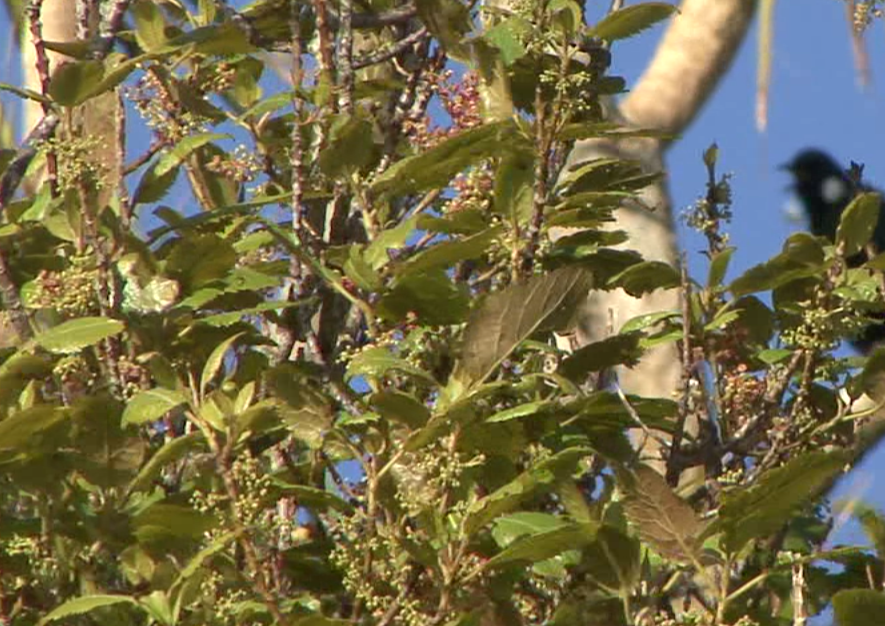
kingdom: Plantae
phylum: Tracheophyta
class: Magnoliopsida
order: Oxalidales
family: Elaeocarpaceae
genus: Aristotelia
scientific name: Aristotelia serrata
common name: New zealand wineberry
